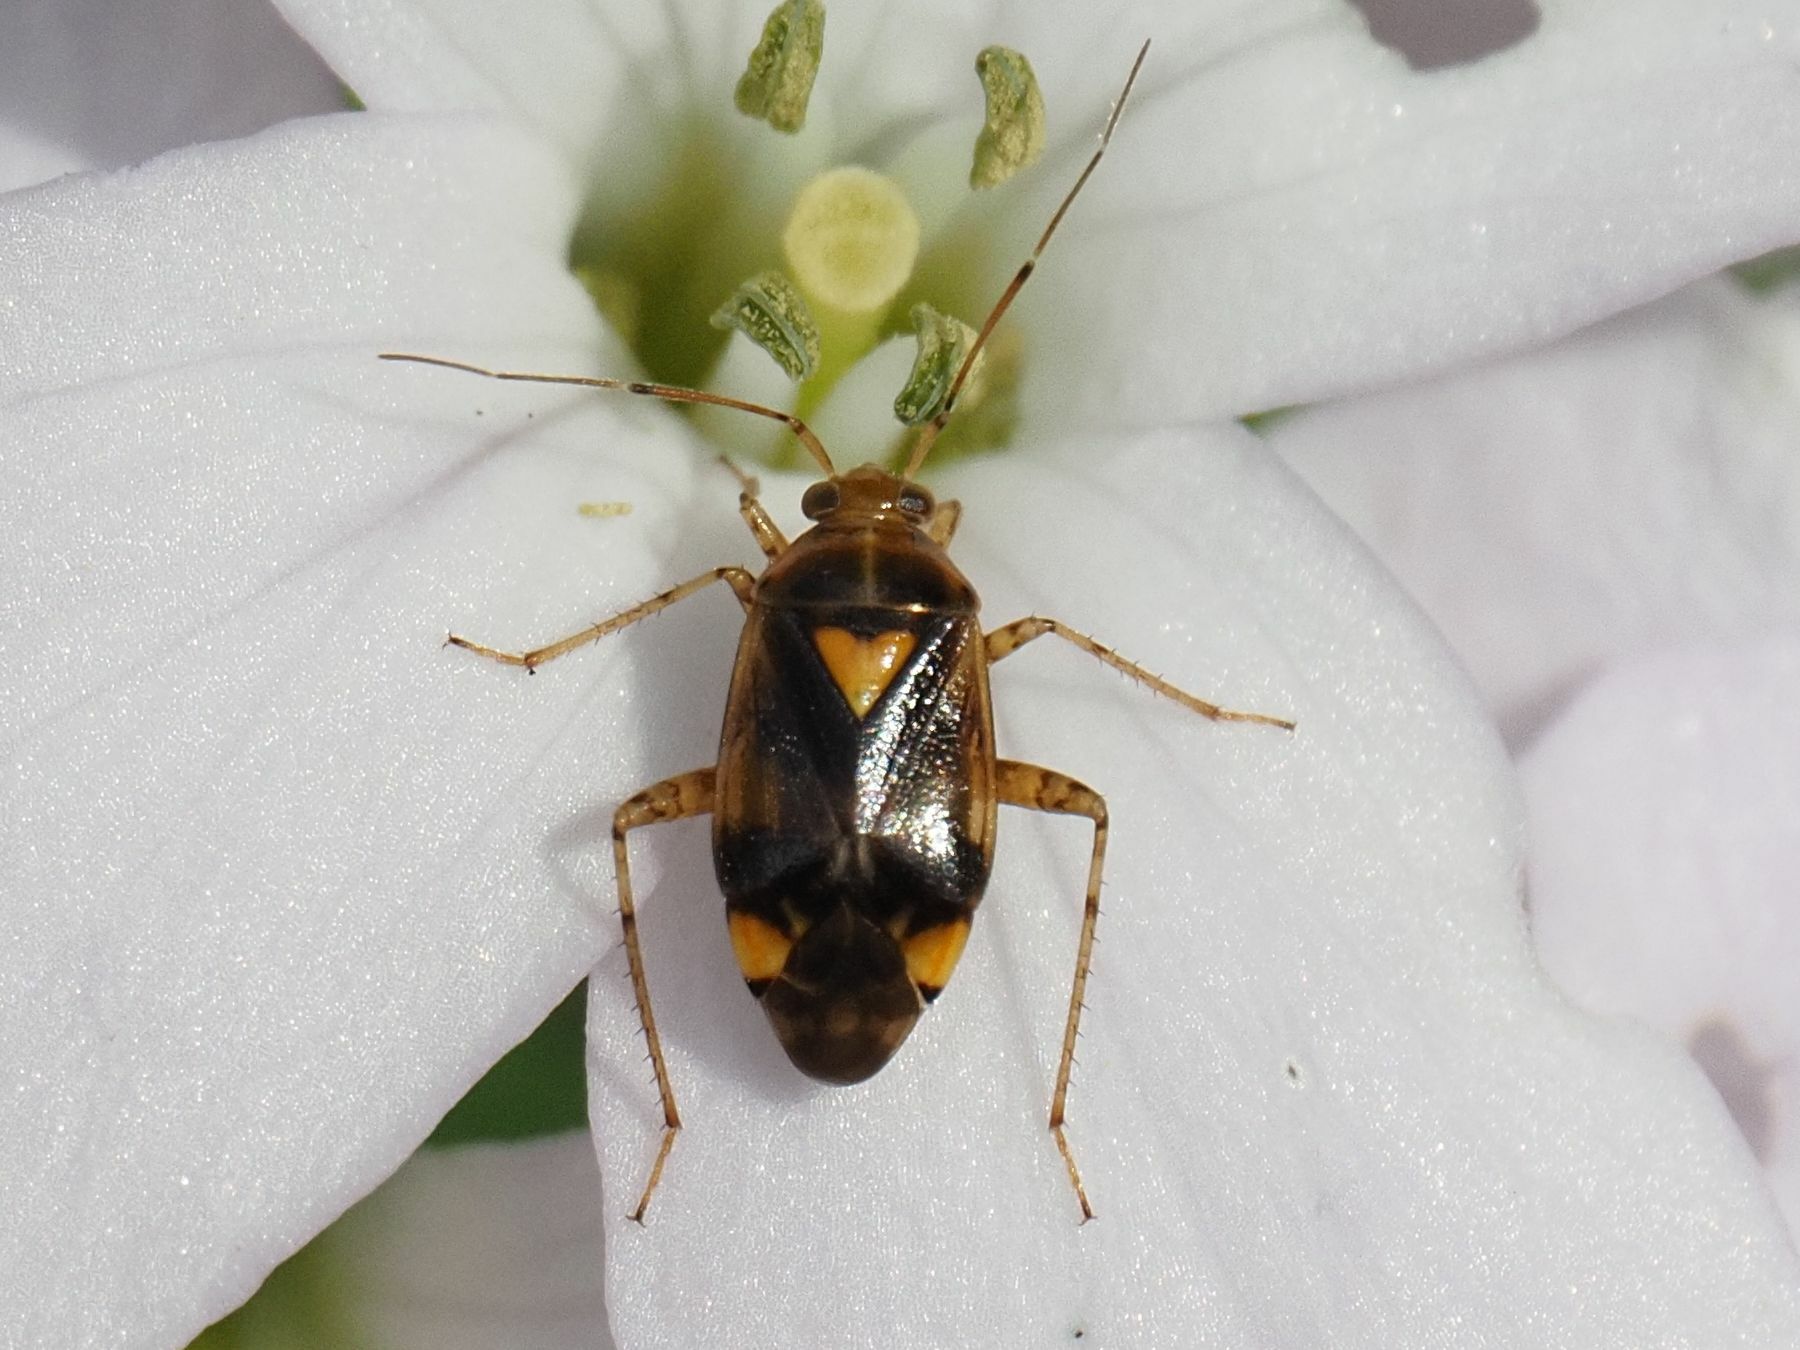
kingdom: Animalia
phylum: Arthropoda
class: Insecta
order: Hemiptera
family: Miridae
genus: Liocoris
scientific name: Liocoris tripustulatus
